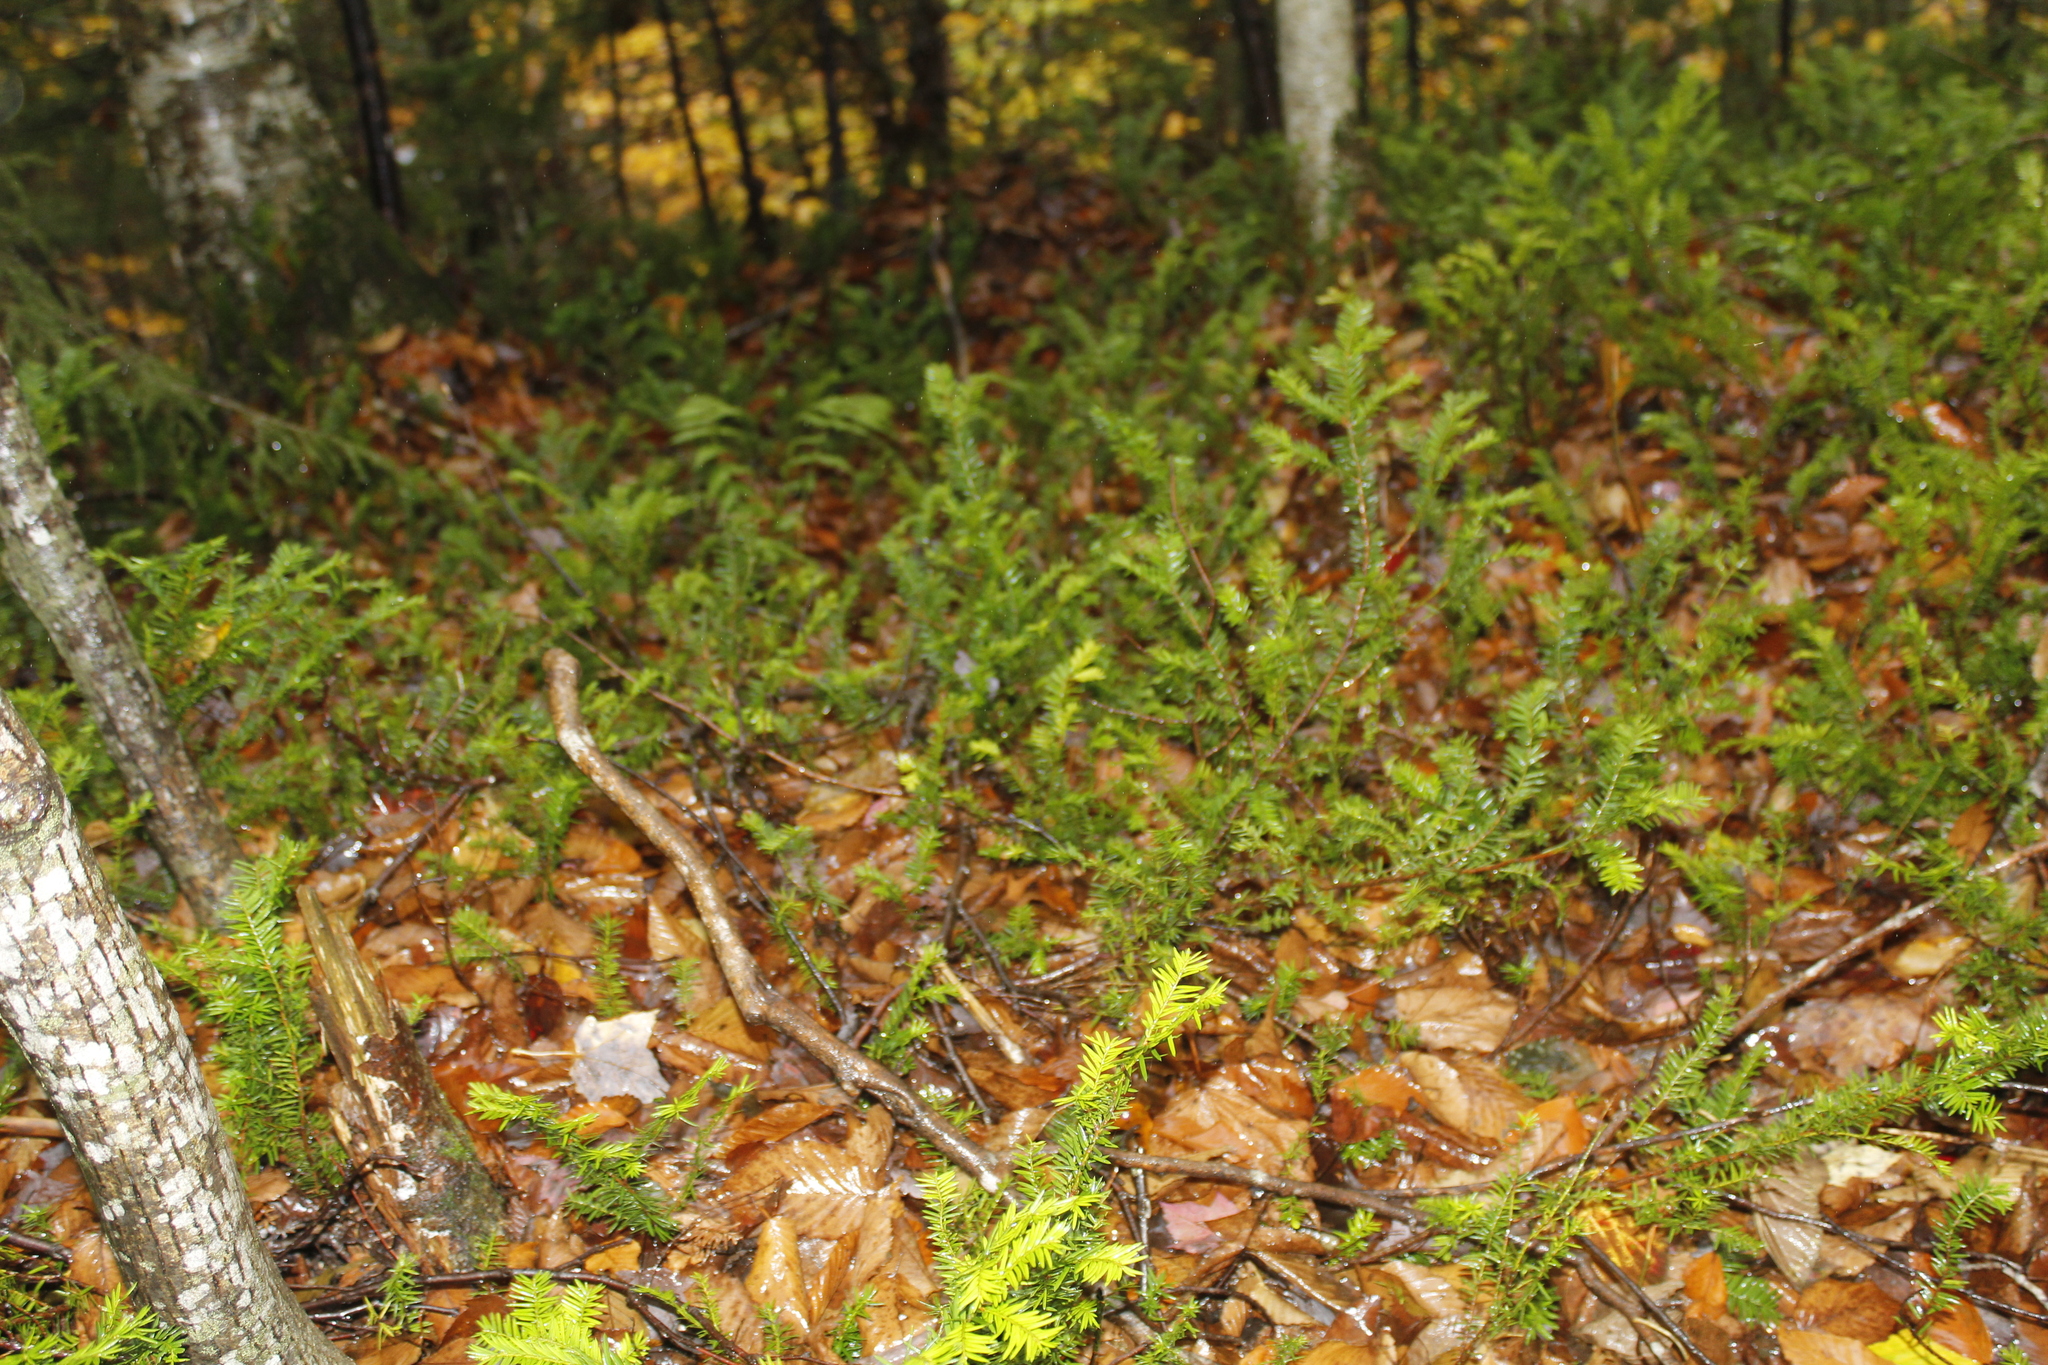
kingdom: Plantae
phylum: Tracheophyta
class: Pinopsida
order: Pinales
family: Taxaceae
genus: Taxus
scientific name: Taxus canadensis
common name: American yew
